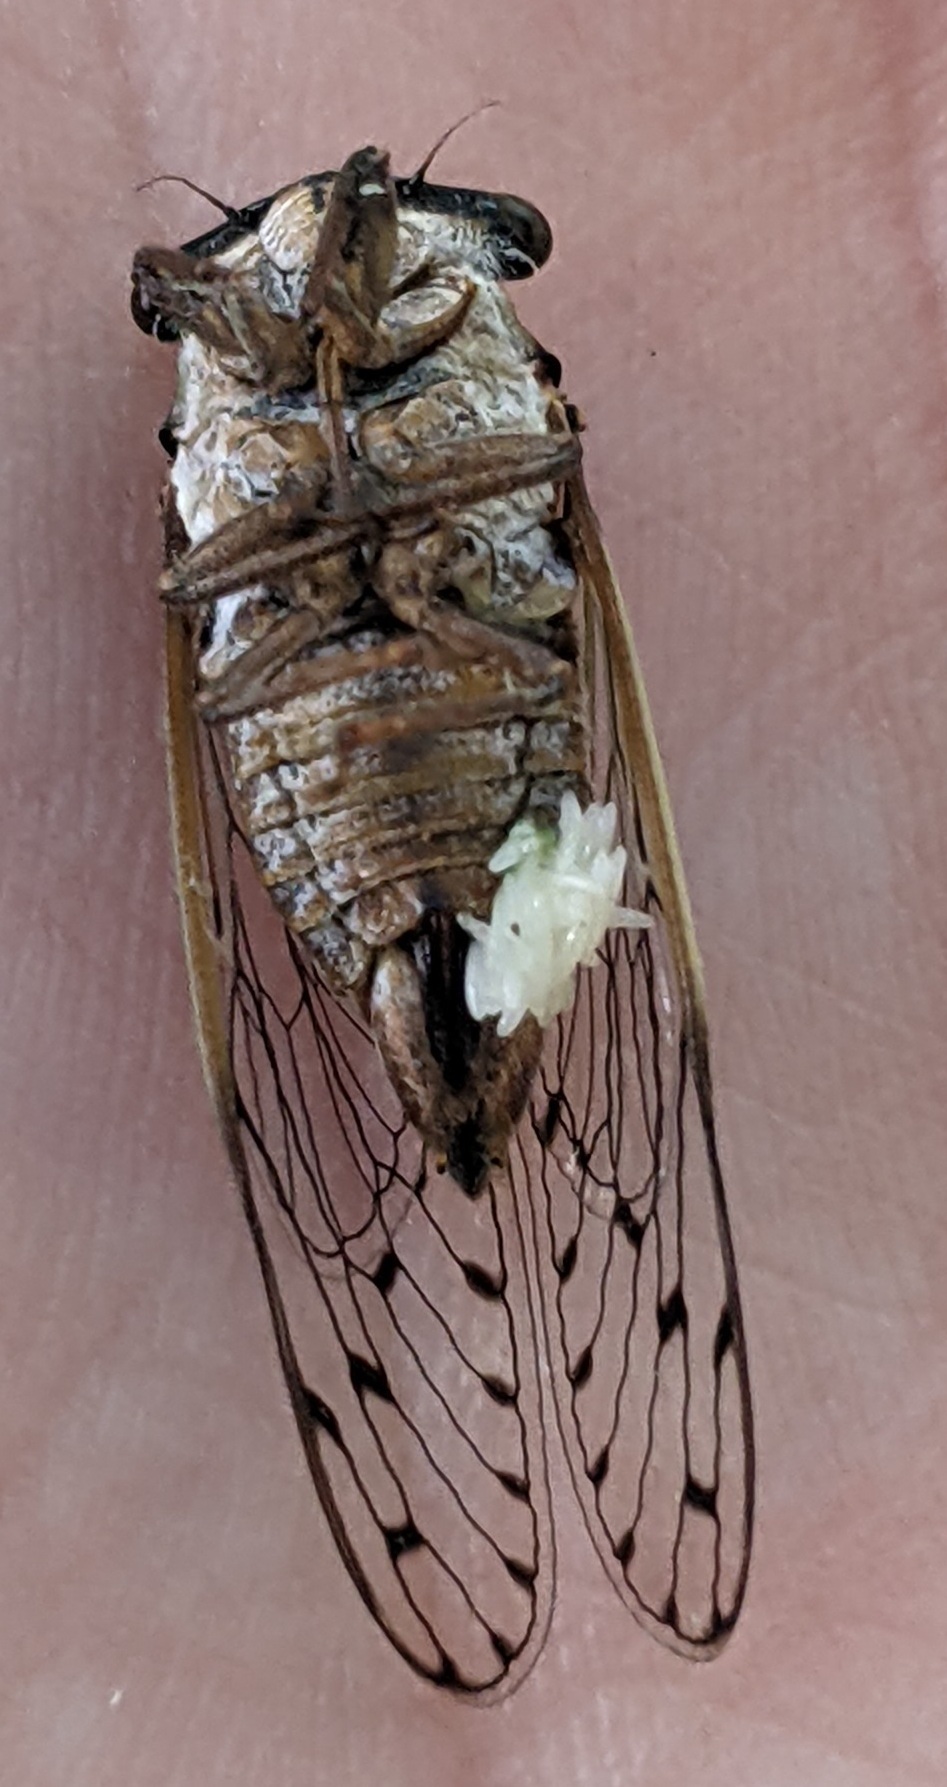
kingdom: Animalia
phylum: Arthropoda
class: Insecta
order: Hemiptera
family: Cicadidae
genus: Pacarina
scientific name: Pacarina puella
